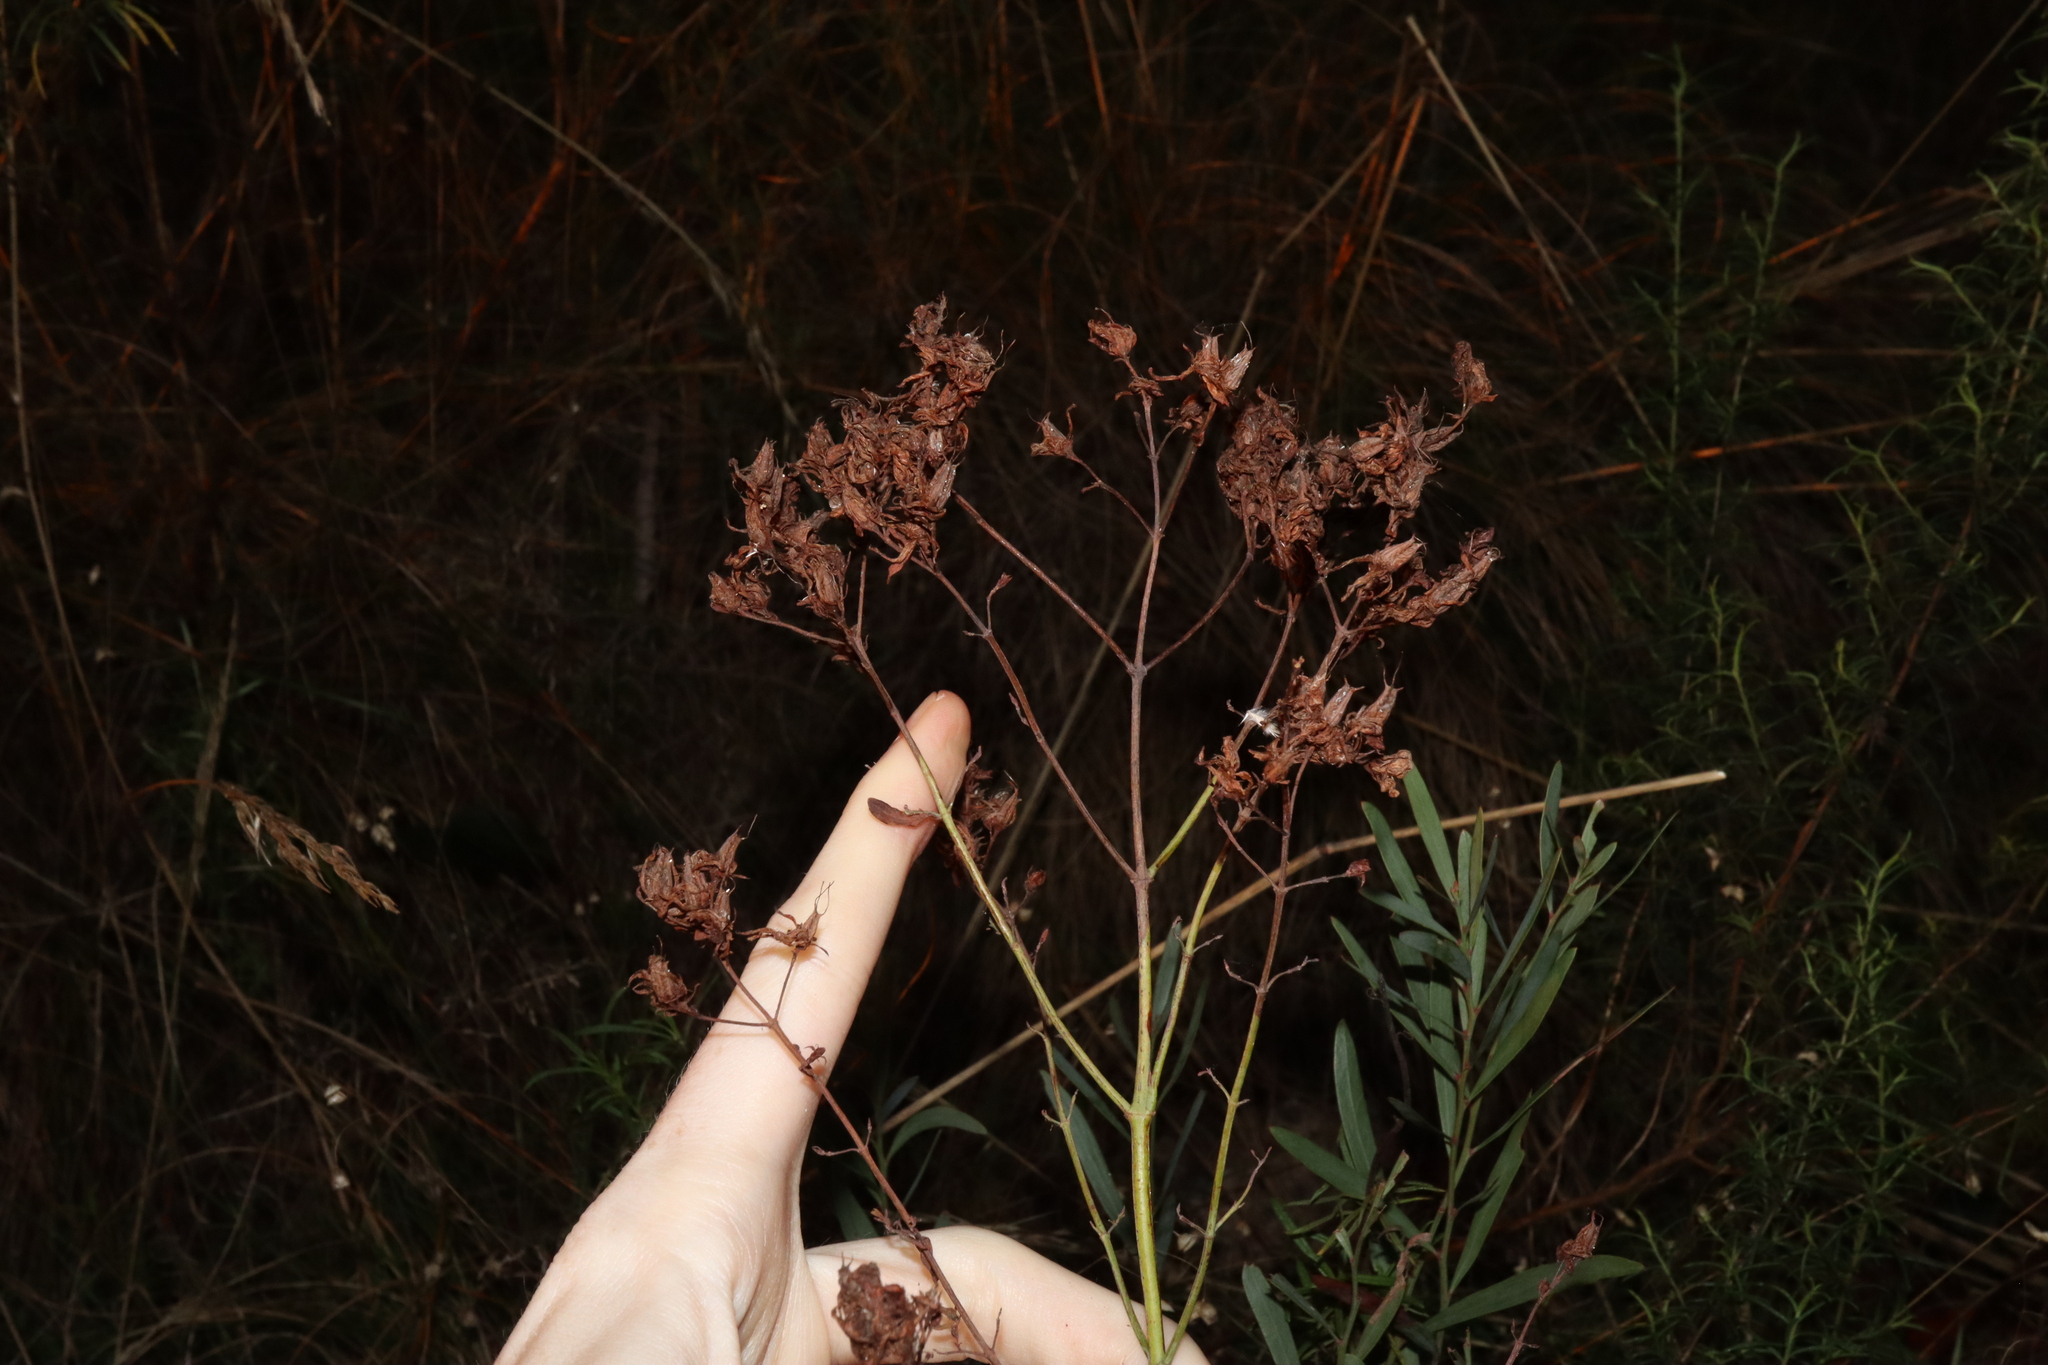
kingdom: Plantae
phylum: Tracheophyta
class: Magnoliopsida
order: Malpighiales
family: Hypericaceae
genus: Hypericum
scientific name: Hypericum perforatum
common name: Common st. johnswort
